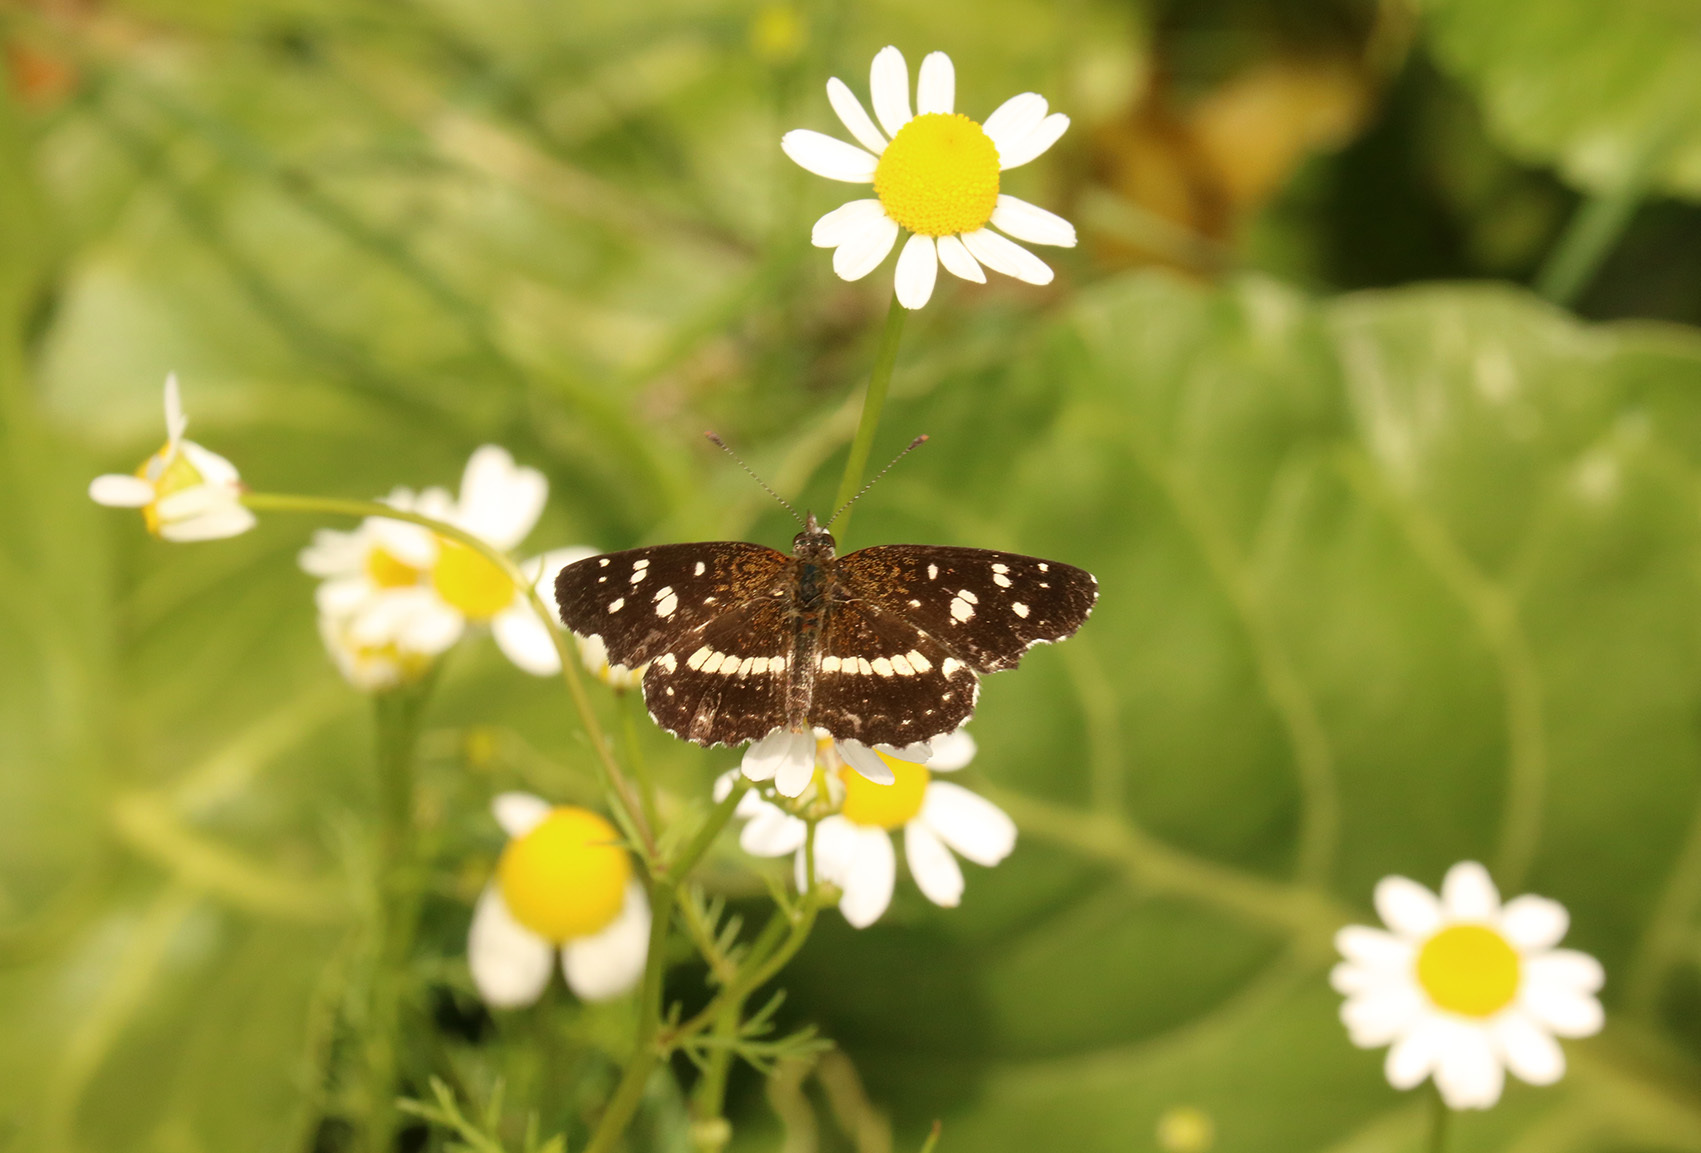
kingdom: Animalia
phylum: Arthropoda
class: Insecta
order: Lepidoptera
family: Nymphalidae
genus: Ortilia
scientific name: Ortilia ithra
